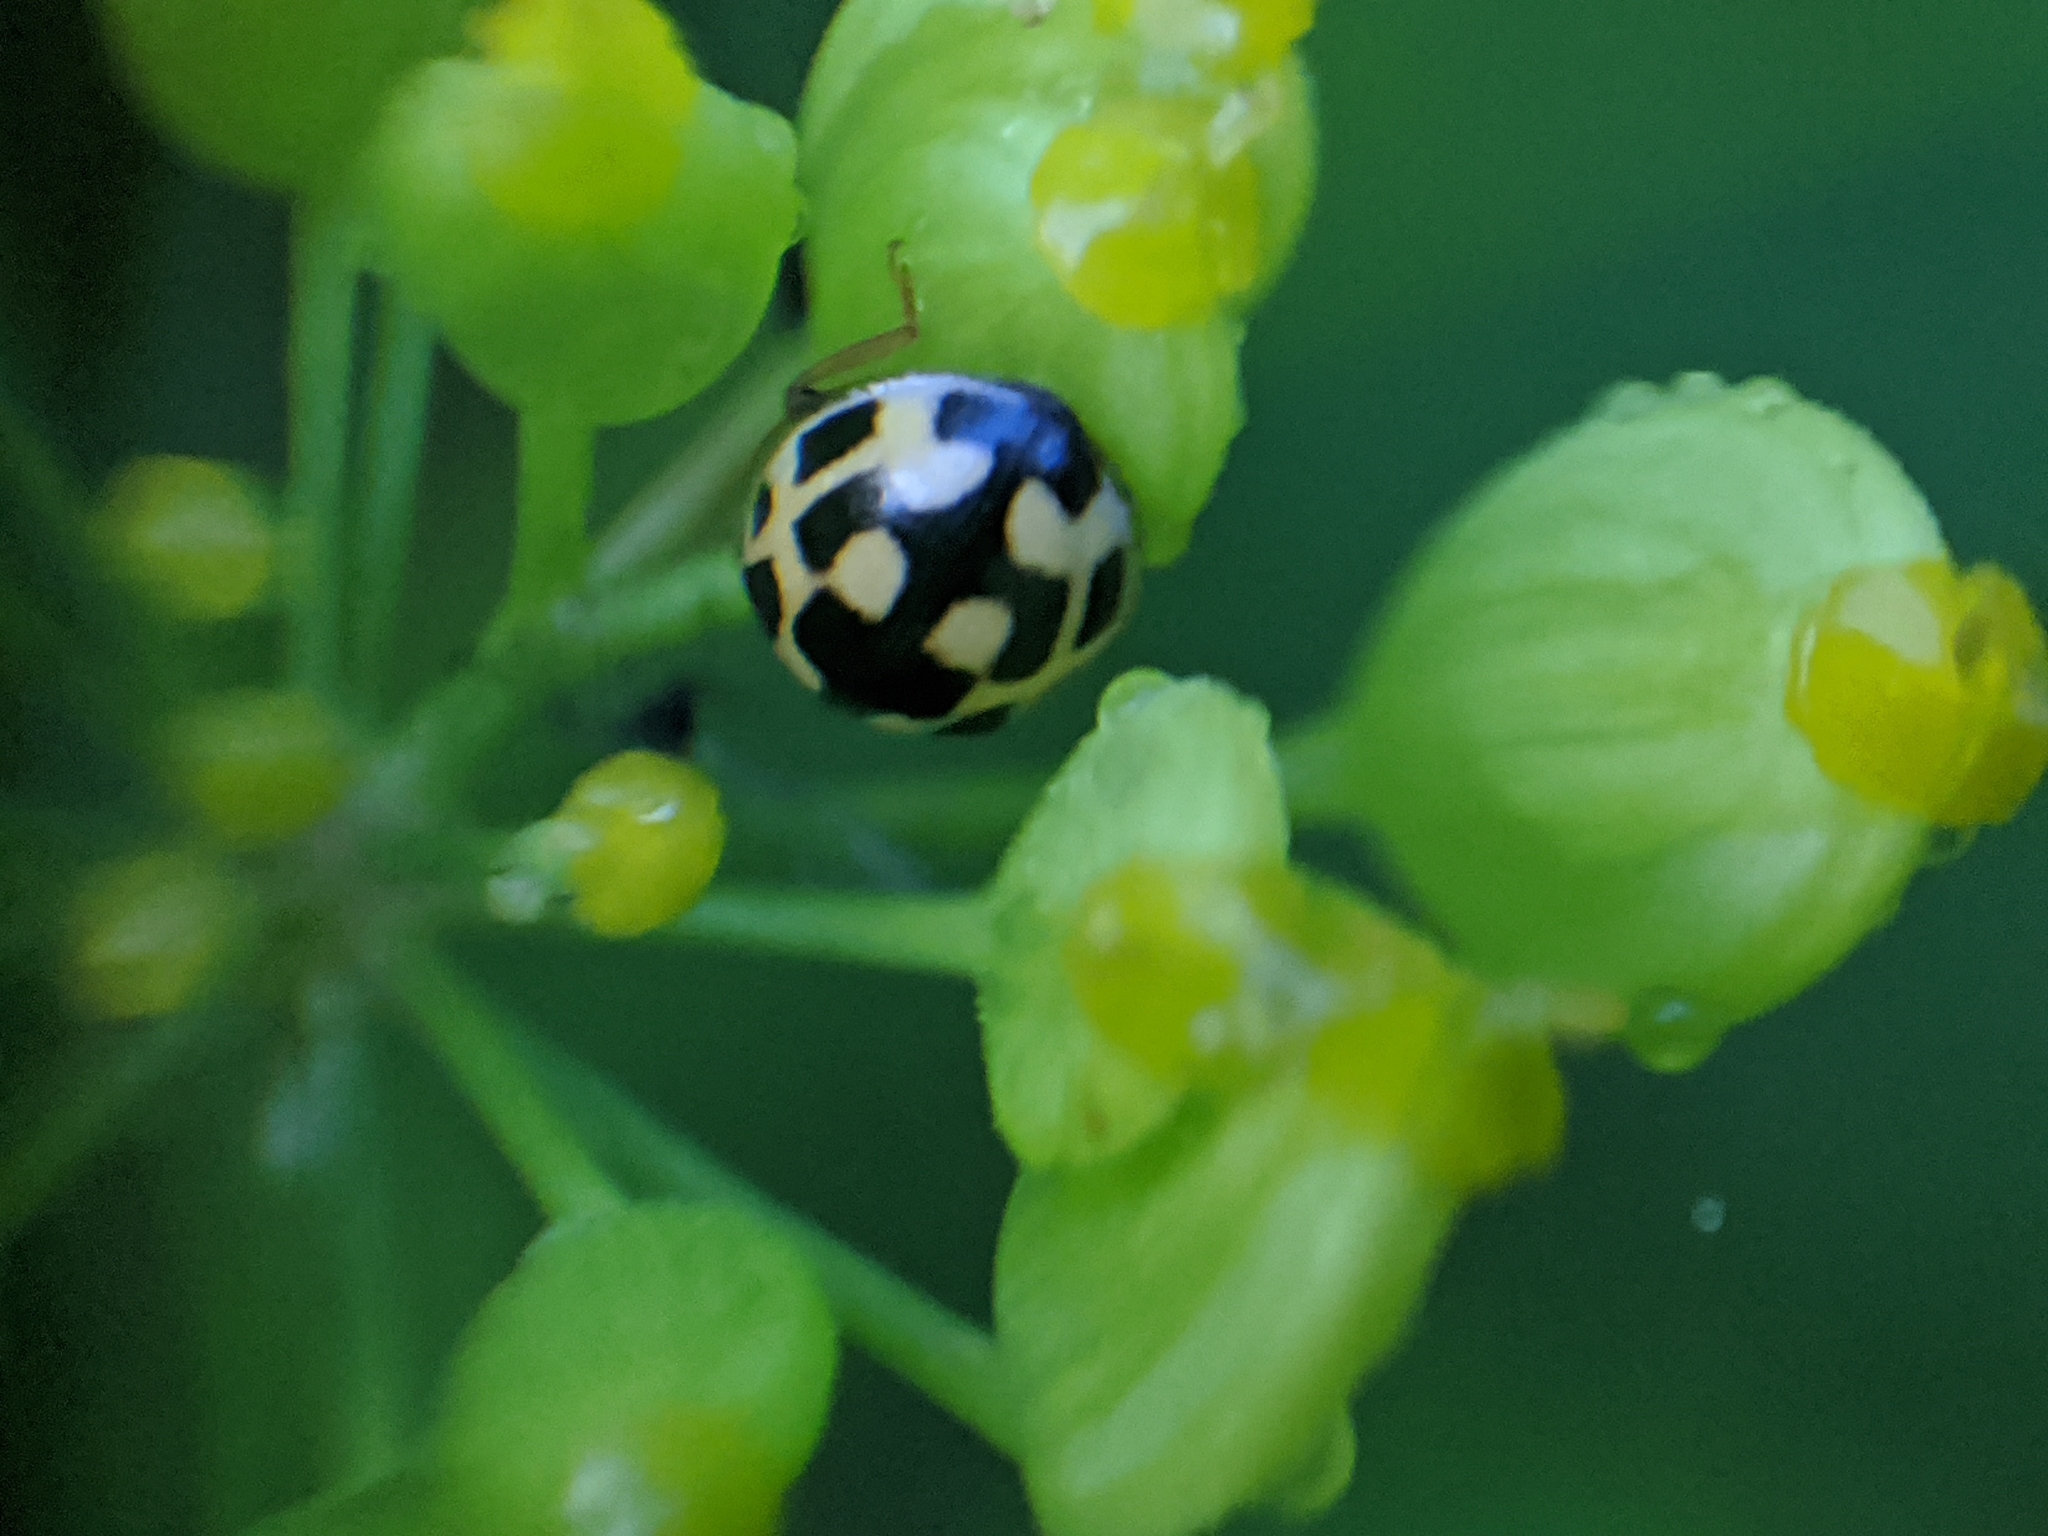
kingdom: Animalia
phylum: Arthropoda
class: Insecta
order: Coleoptera
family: Coccinellidae
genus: Propylaea
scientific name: Propylaea quatuordecimpunctata
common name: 14-spotted ladybird beetle
